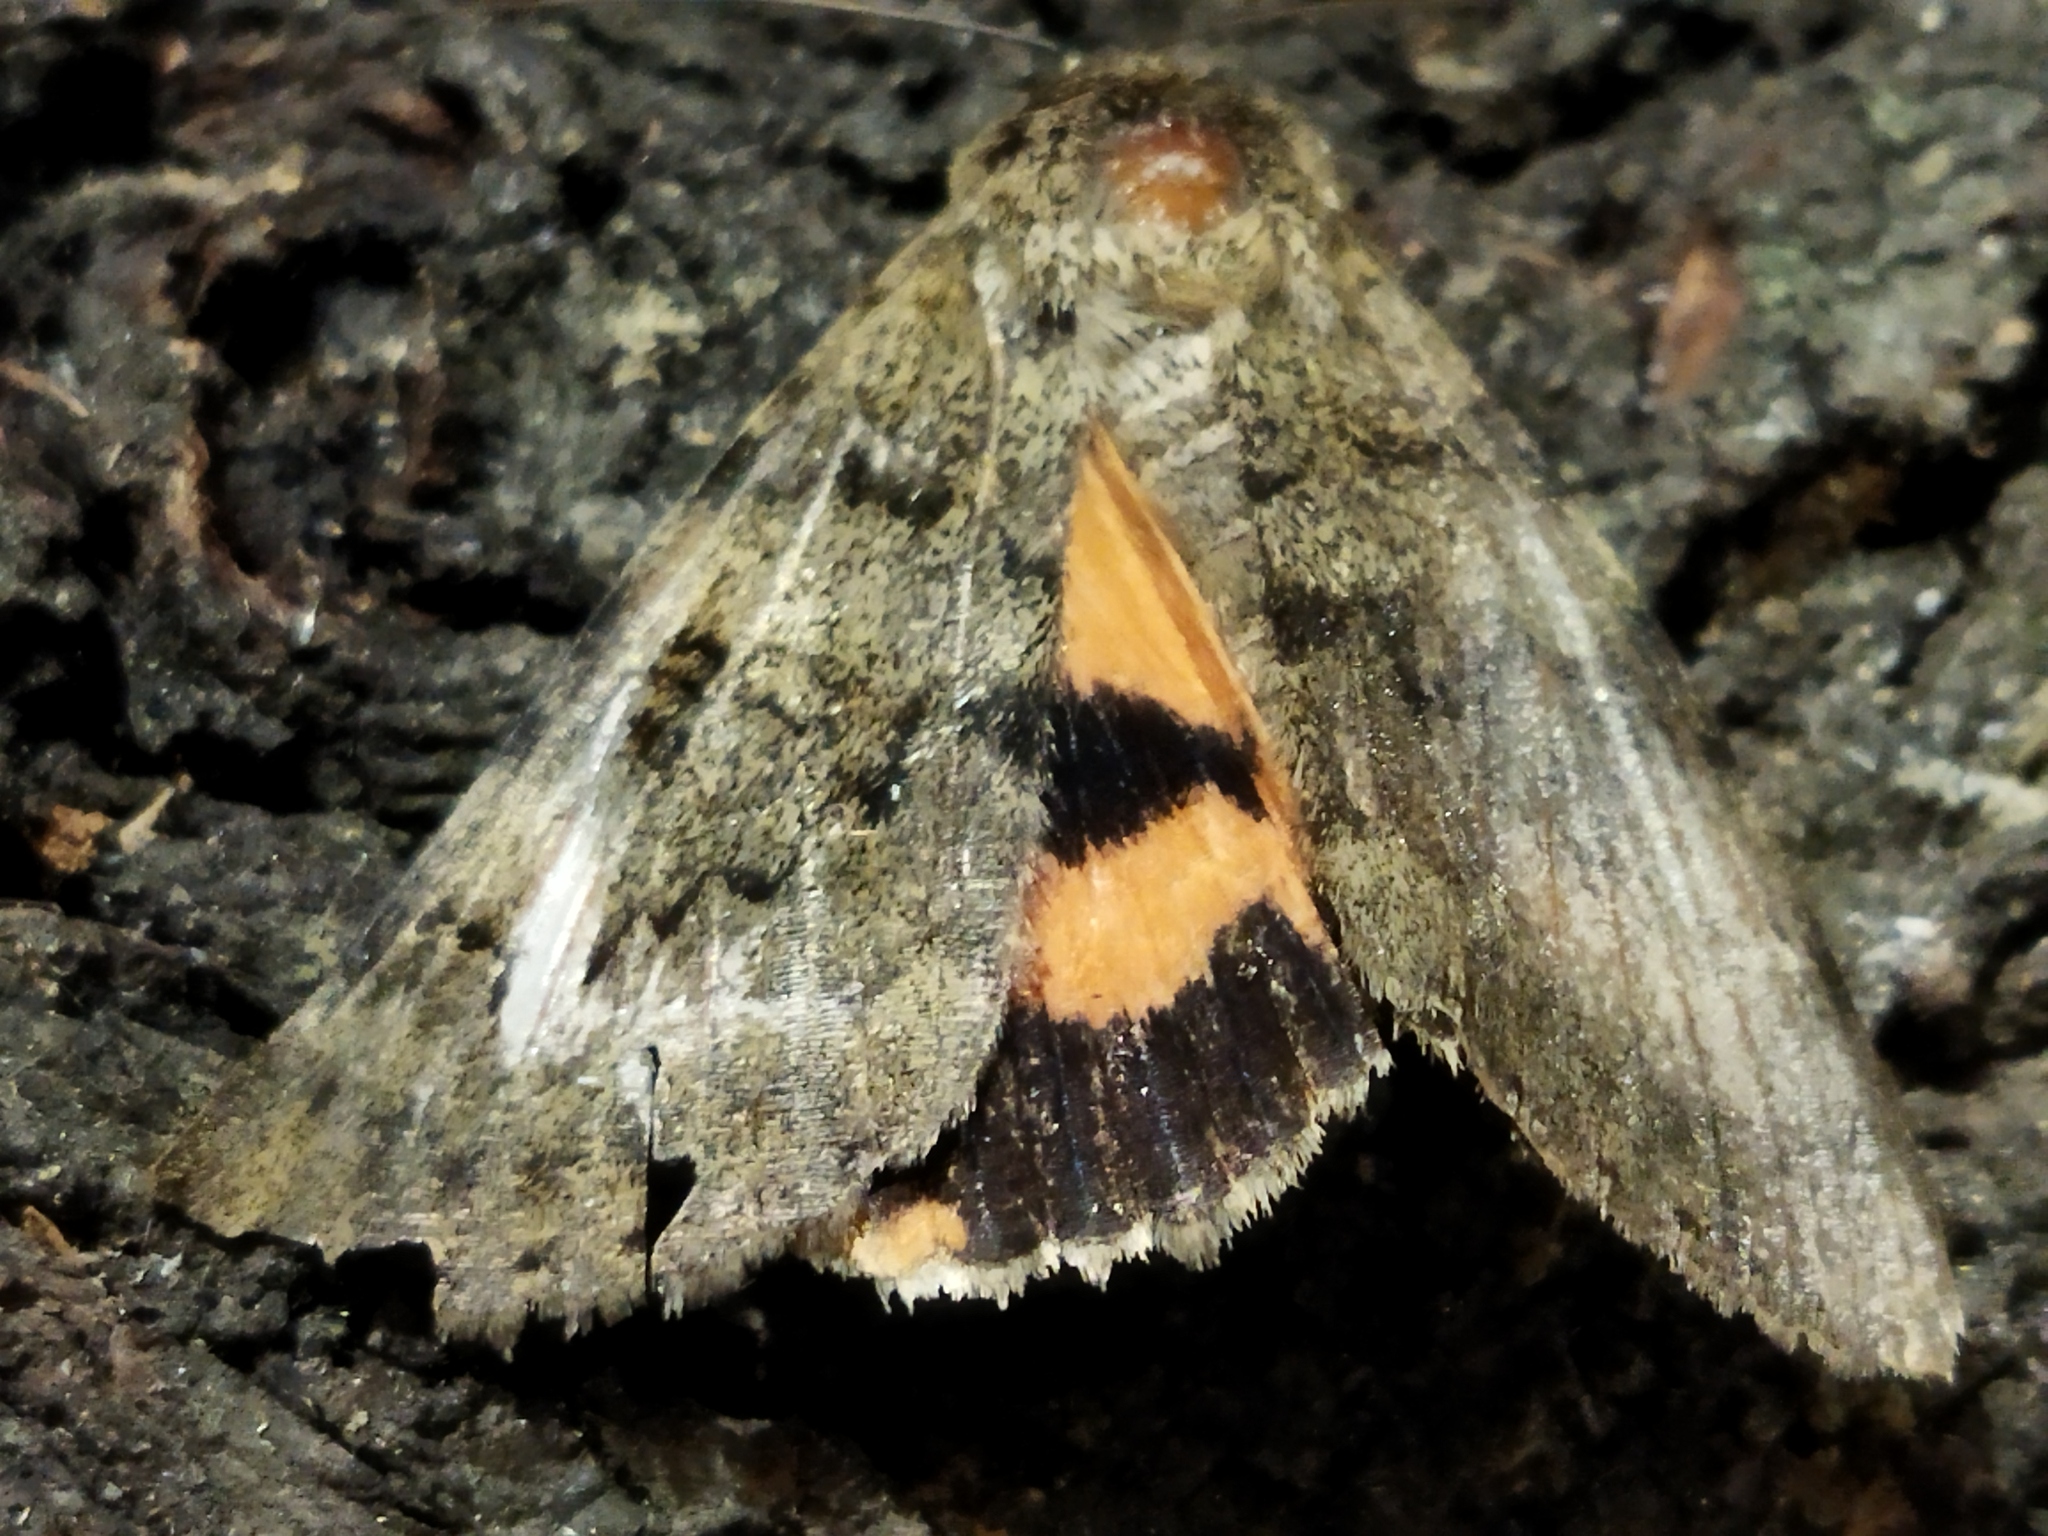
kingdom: Animalia
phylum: Arthropoda
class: Insecta
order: Lepidoptera
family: Erebidae
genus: Catocala
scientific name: Catocala puerpera
